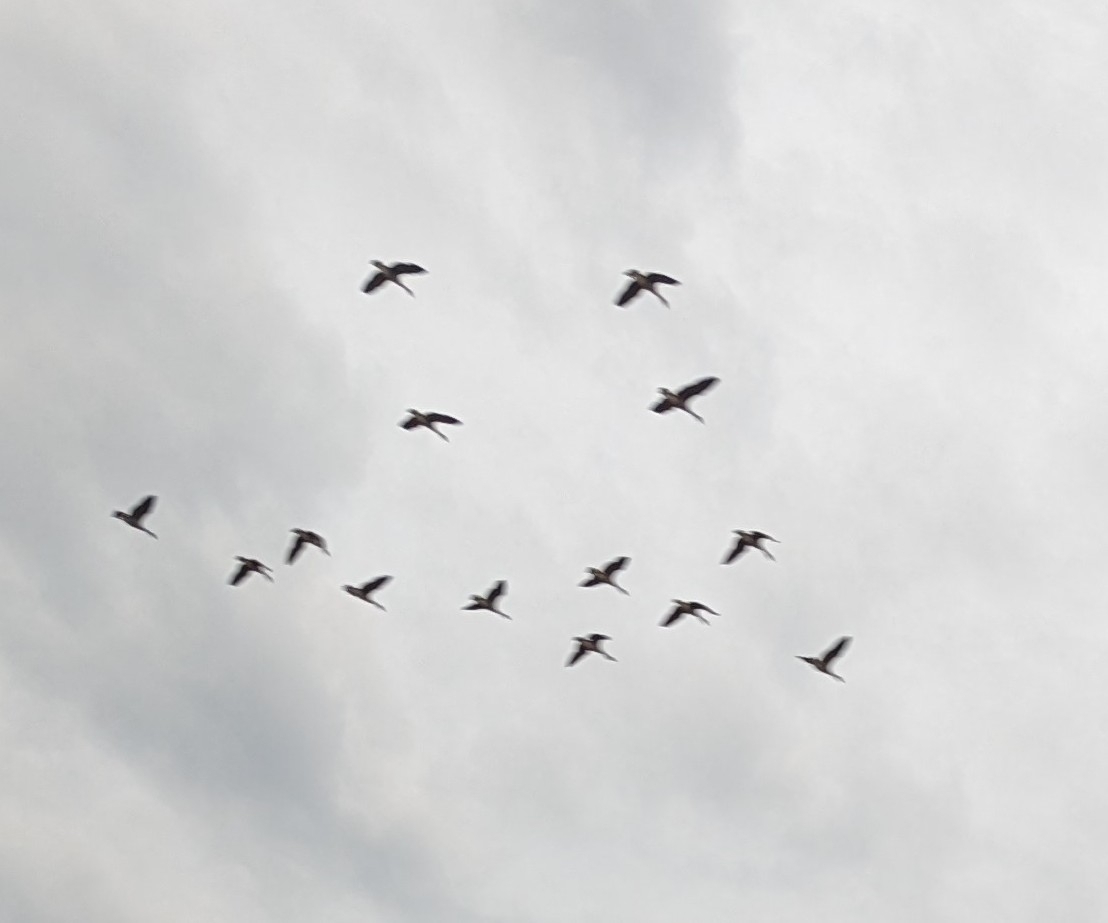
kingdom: Animalia
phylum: Chordata
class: Aves
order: Anseriformes
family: Anatidae
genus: Branta
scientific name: Branta canadensis
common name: Canada goose
